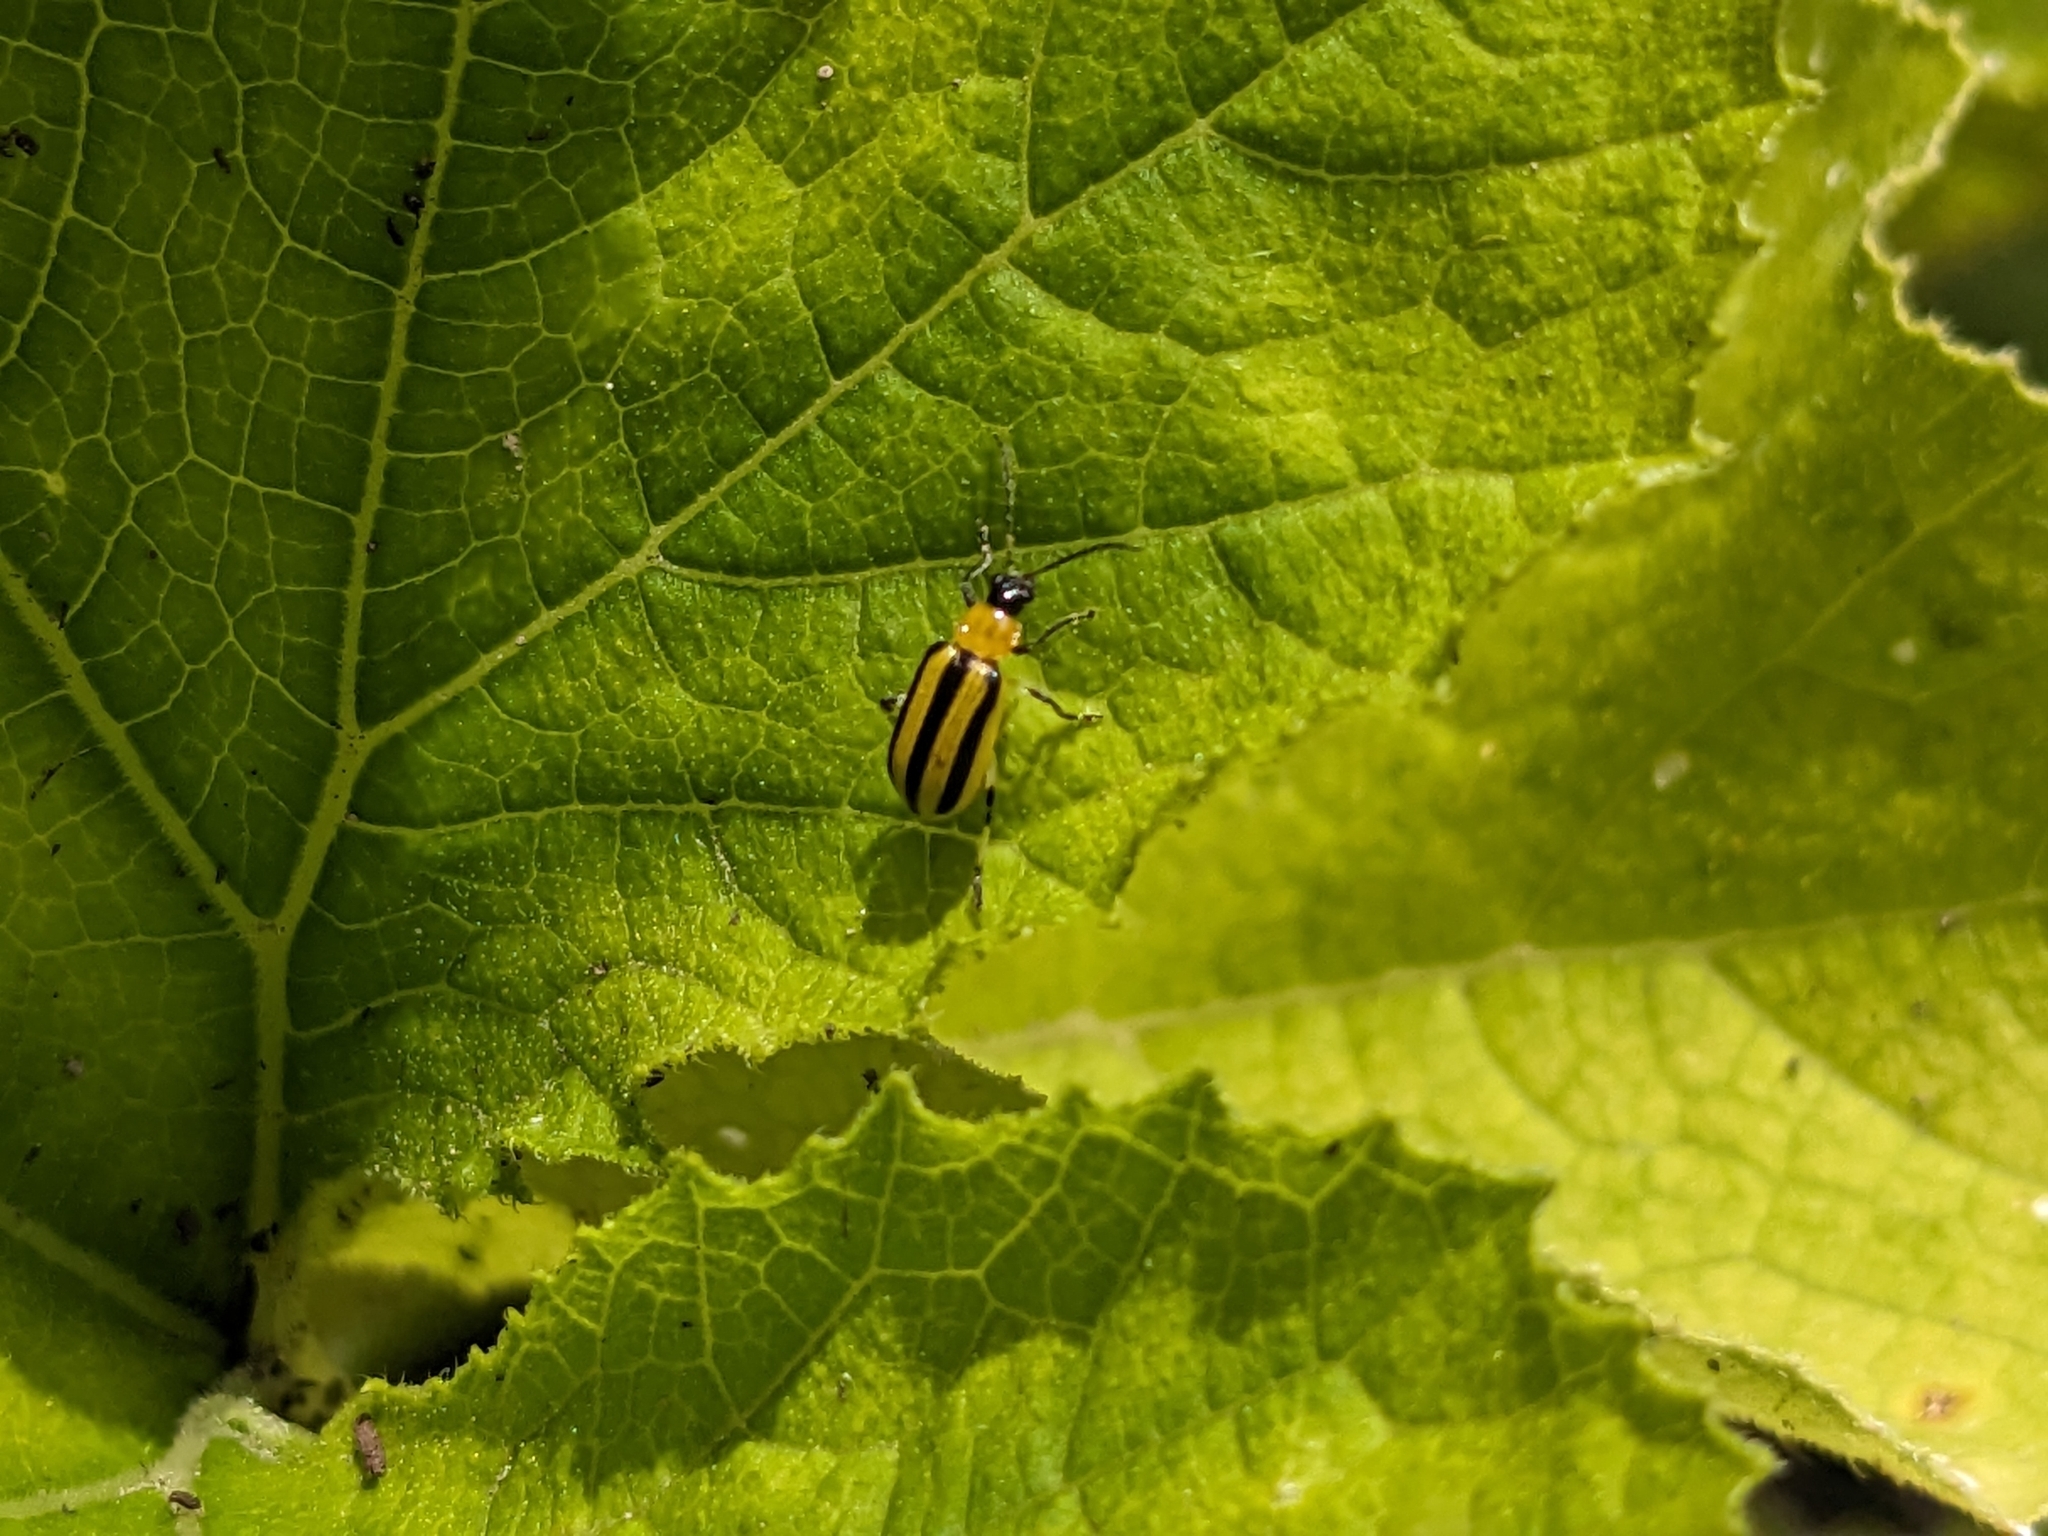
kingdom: Animalia
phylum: Arthropoda
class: Insecta
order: Coleoptera
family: Chrysomelidae
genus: Acalymma
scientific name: Acalymma vittatum
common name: Striped cucumber beetle
